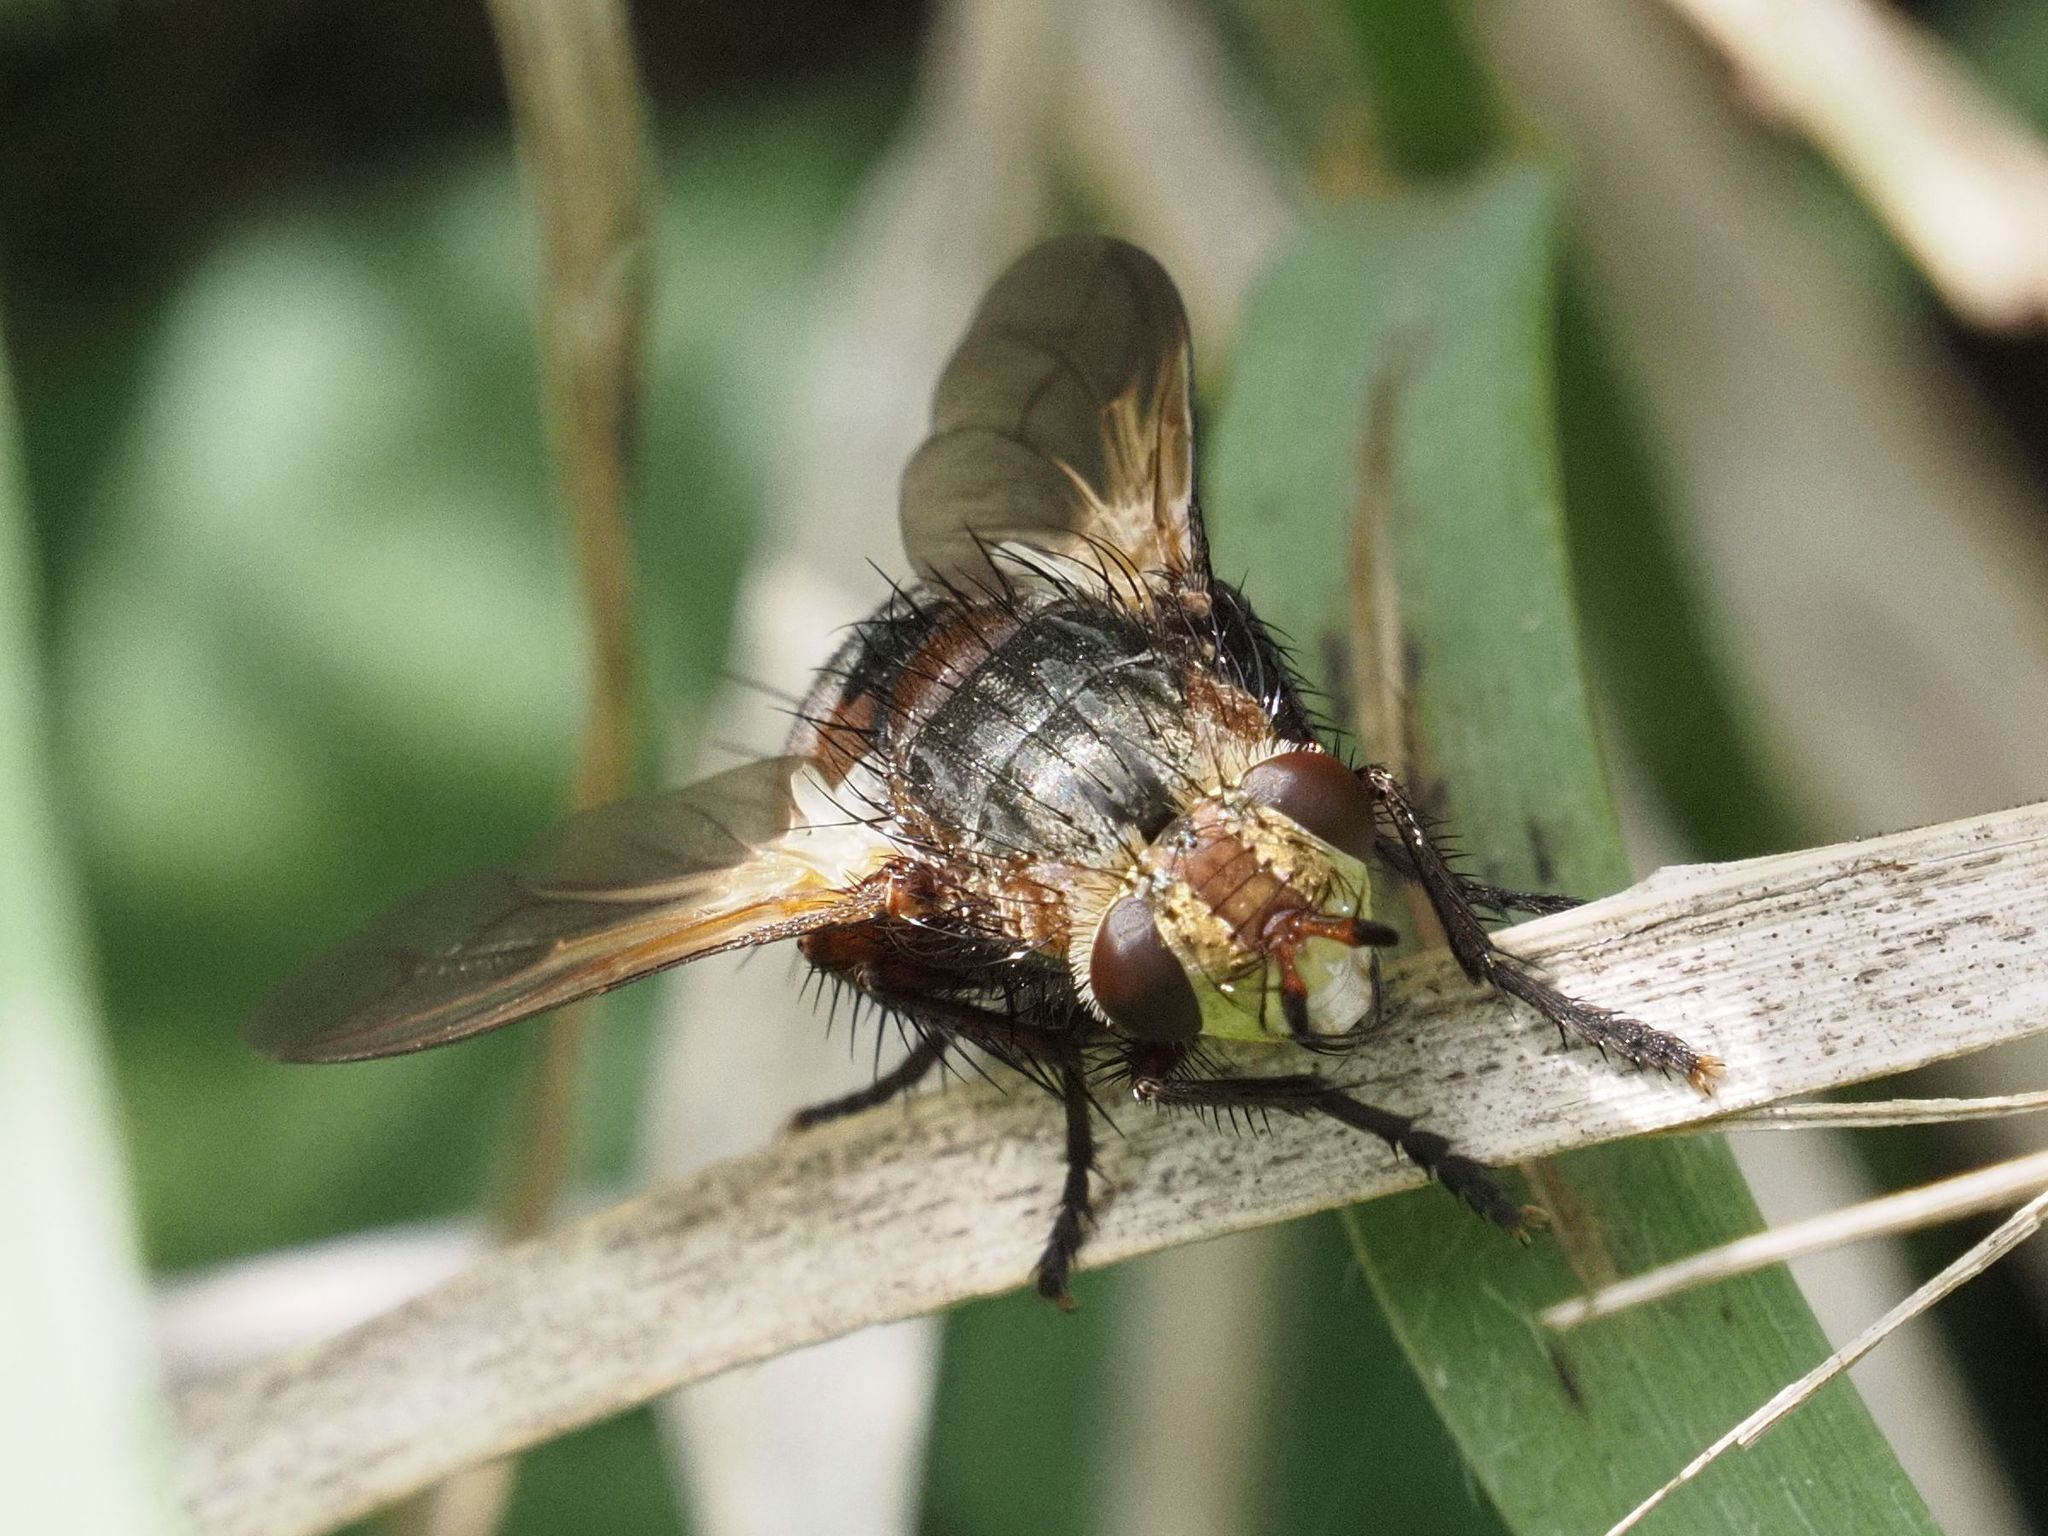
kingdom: Animalia
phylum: Arthropoda
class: Insecta
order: Diptera
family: Tachinidae
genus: Tachina
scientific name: Tachina fera
